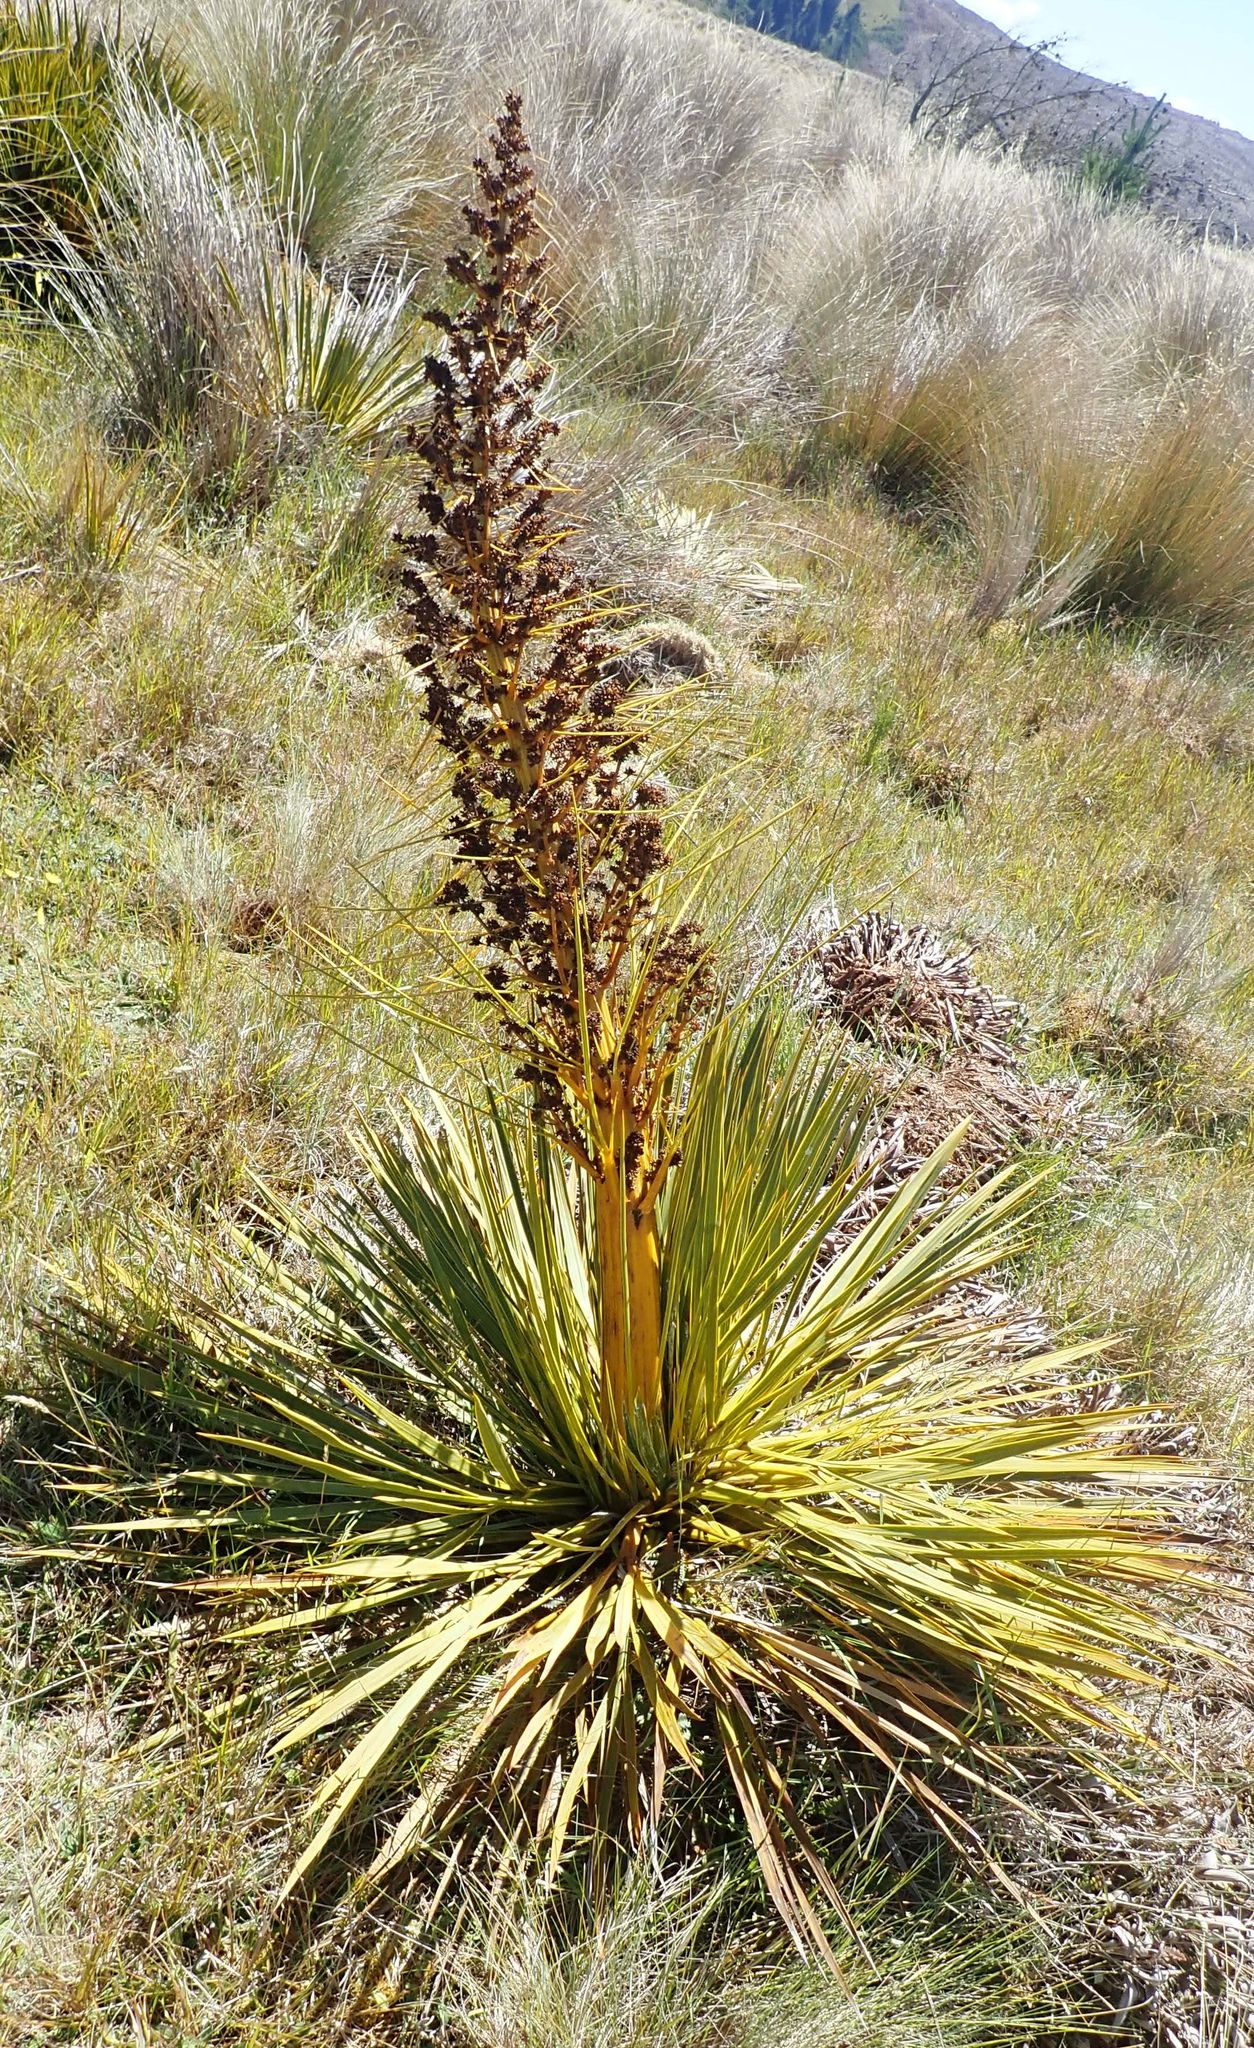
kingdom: Plantae
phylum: Tracheophyta
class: Magnoliopsida
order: Apiales
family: Apiaceae
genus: Aciphylla
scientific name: Aciphylla aurea
